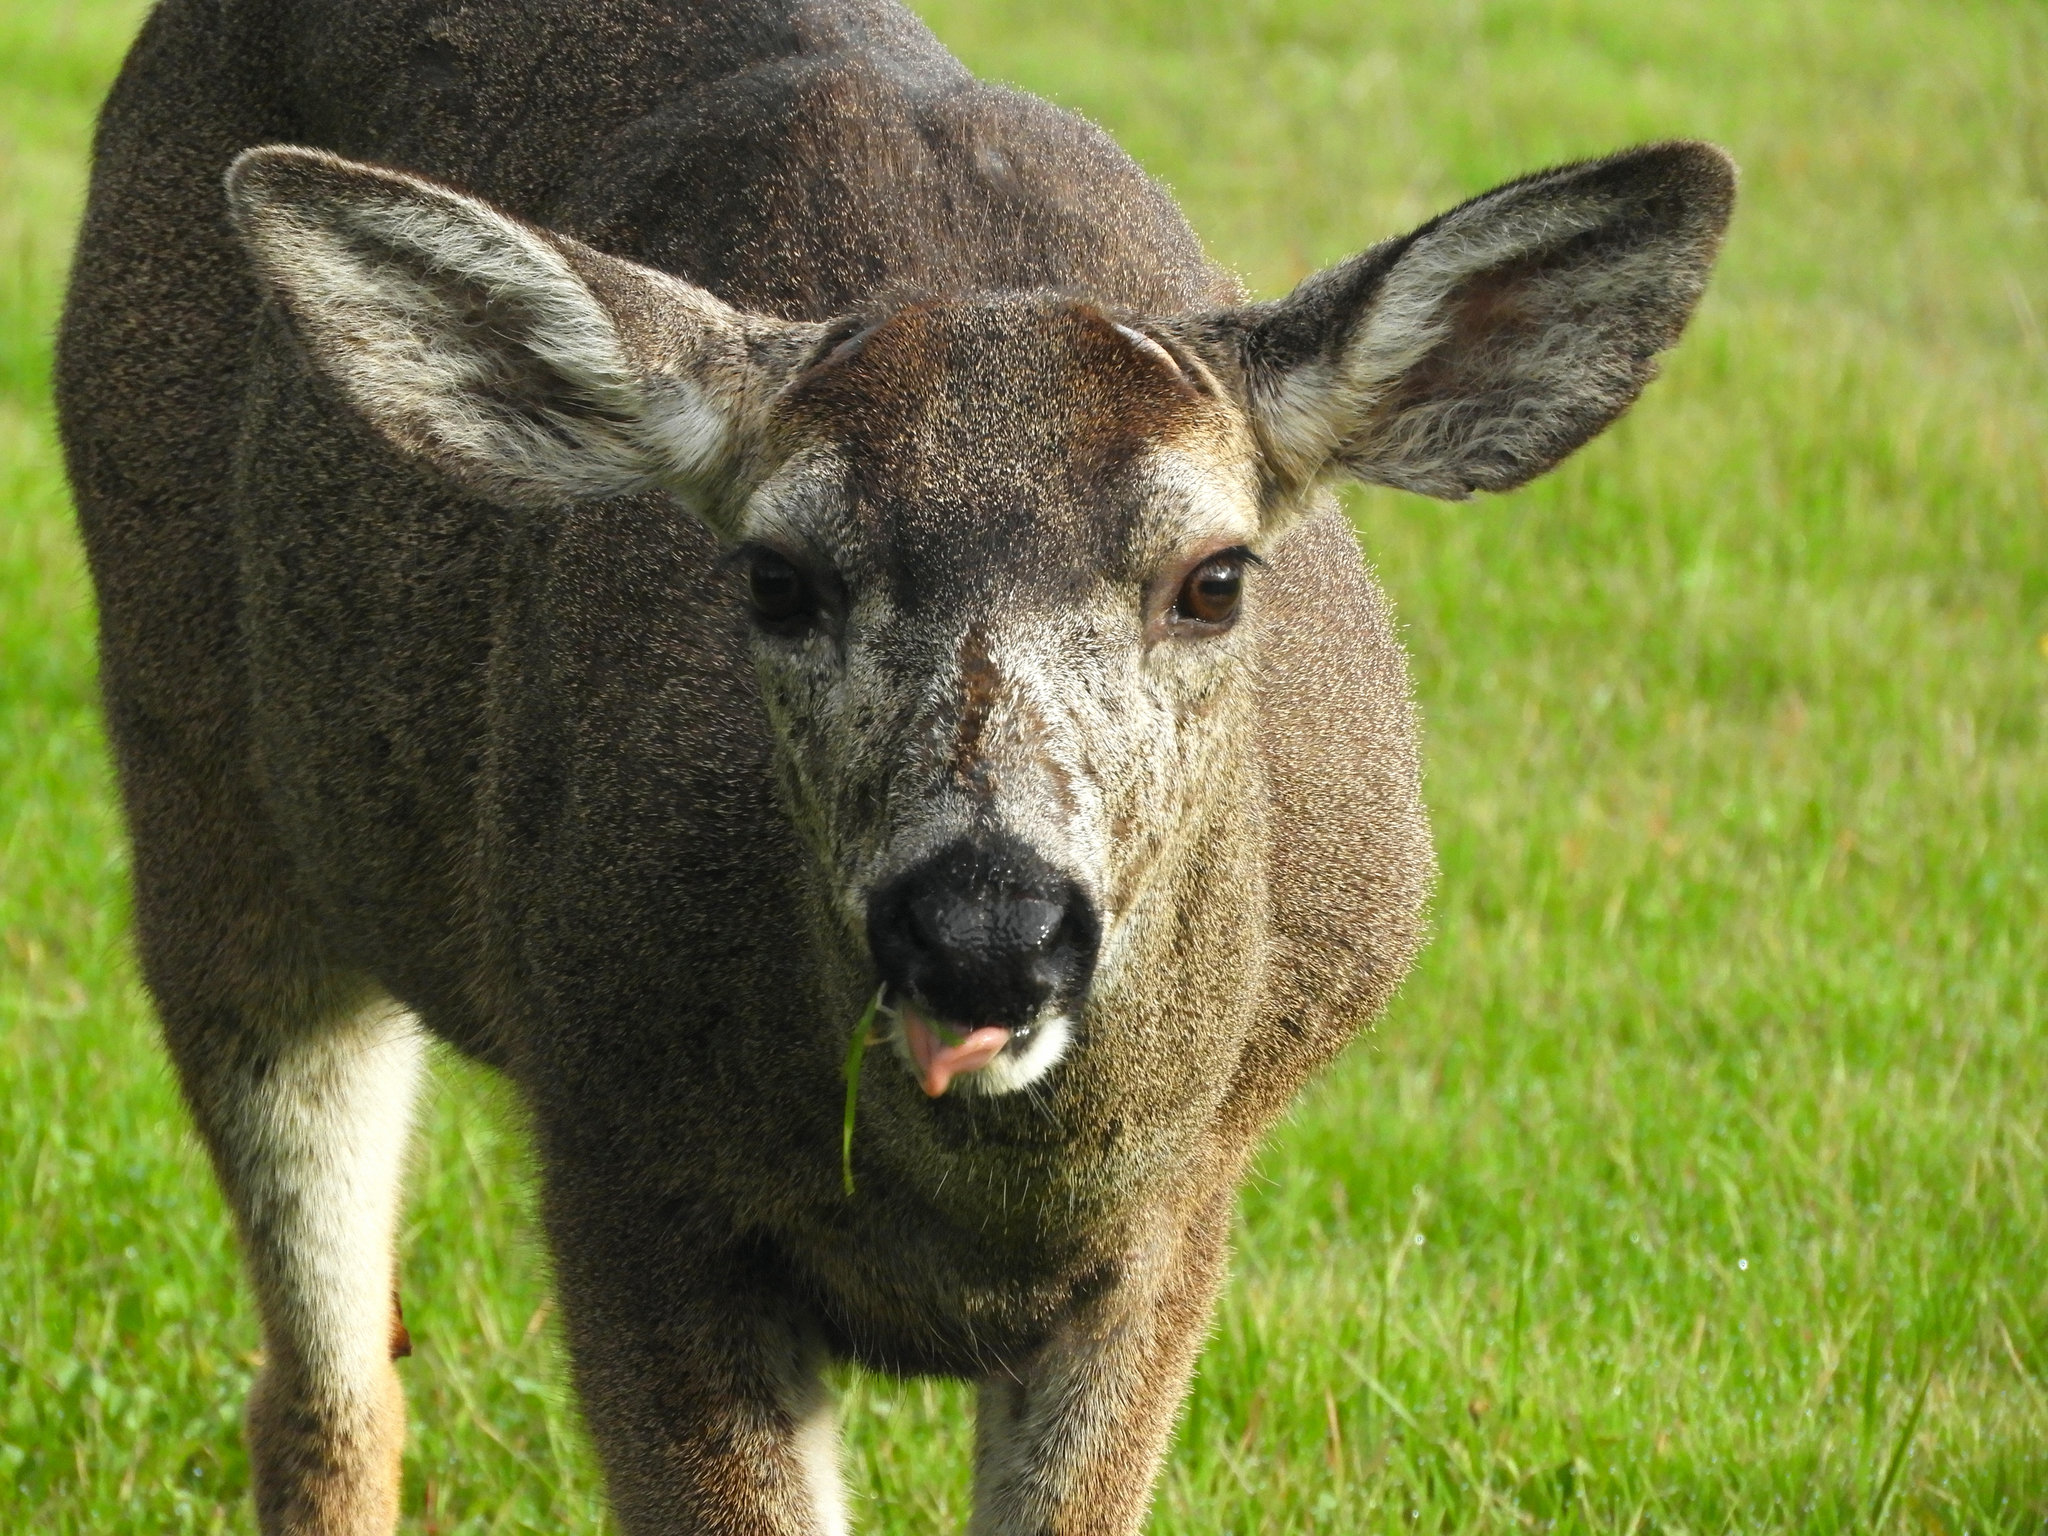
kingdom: Animalia
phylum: Chordata
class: Mammalia
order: Artiodactyla
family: Cervidae
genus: Odocoileus
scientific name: Odocoileus hemionus
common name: Mule deer
